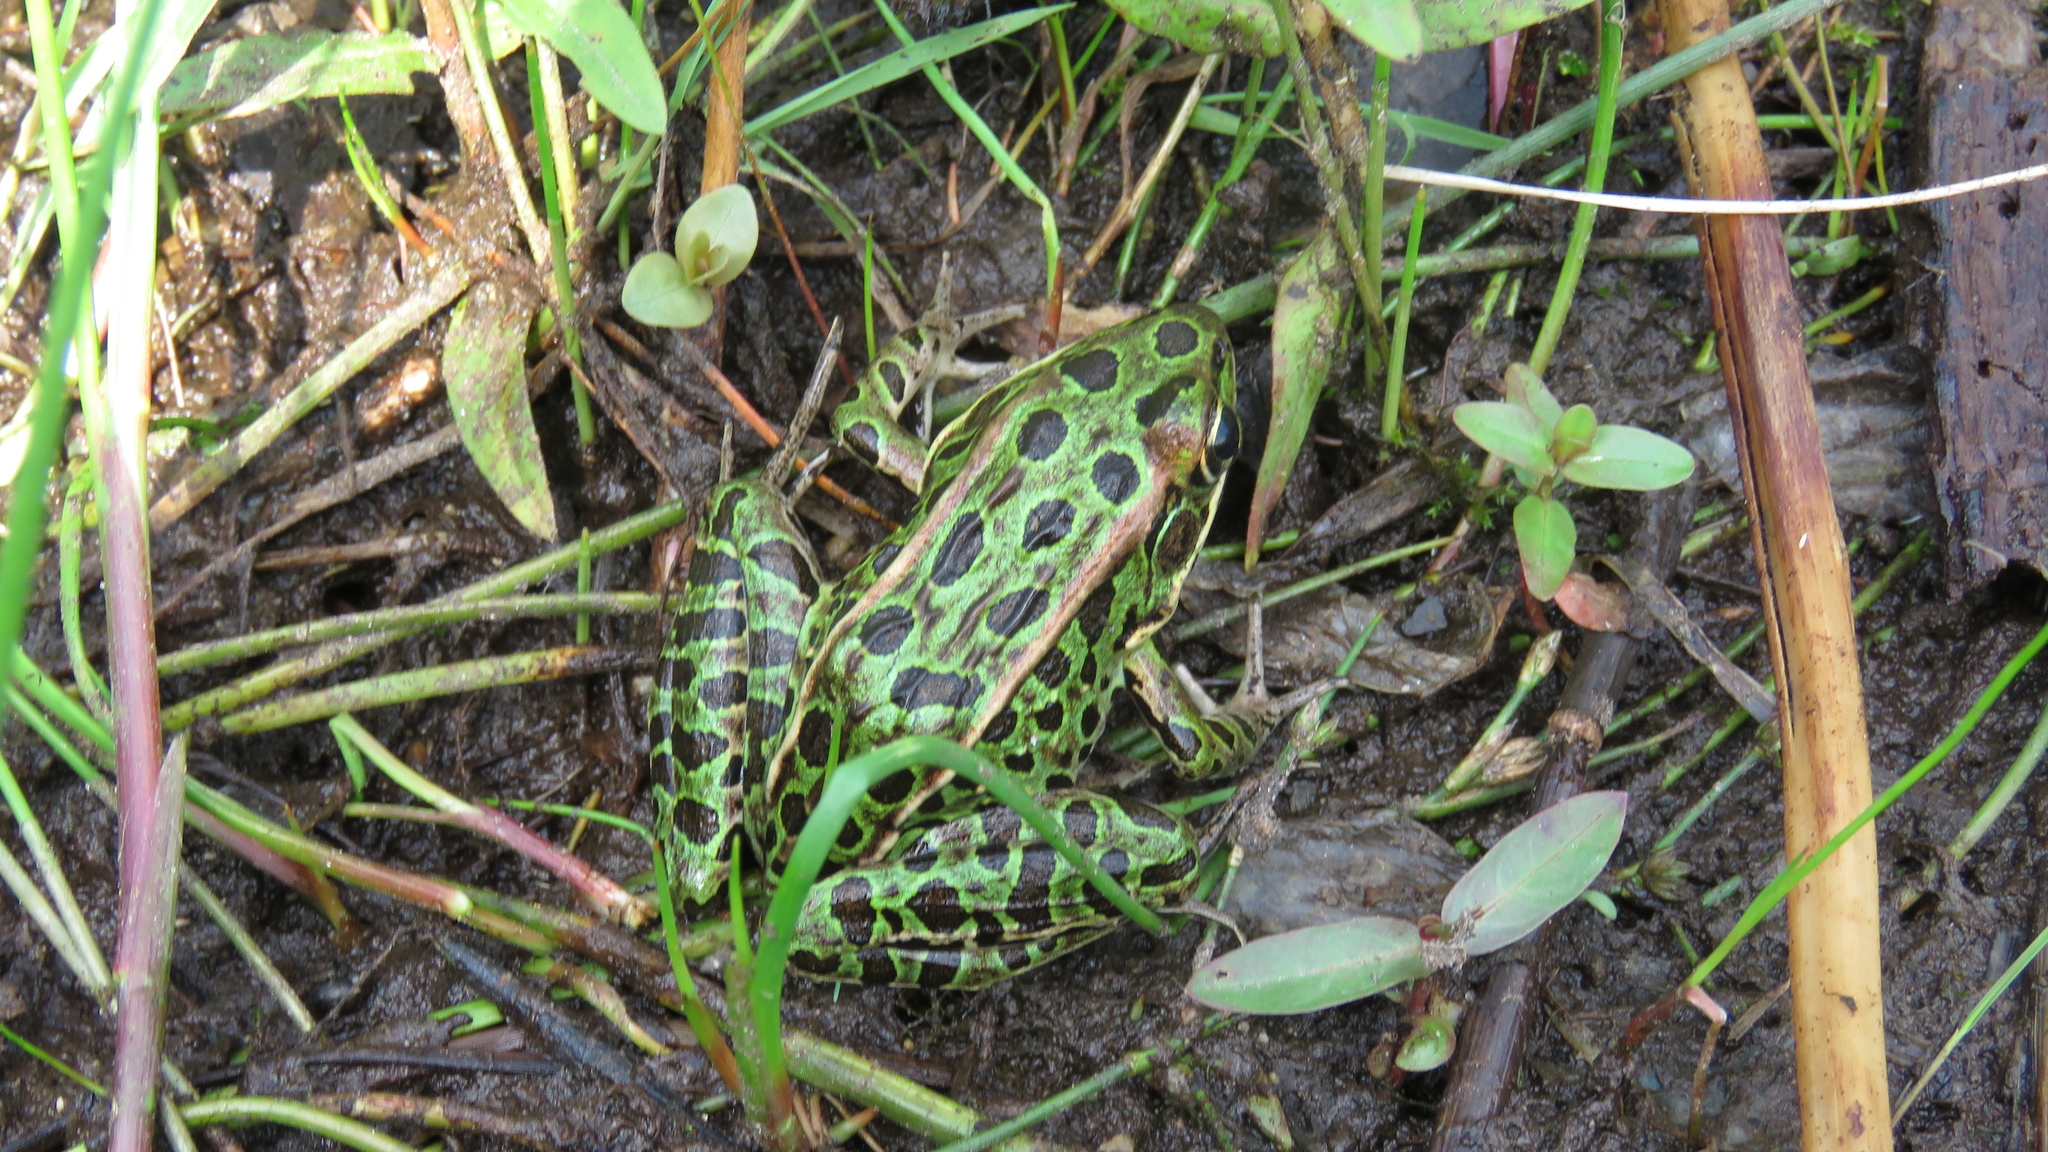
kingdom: Animalia
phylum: Chordata
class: Amphibia
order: Anura
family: Ranidae
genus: Lithobates
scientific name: Lithobates pipiens
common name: Northern leopard frog
